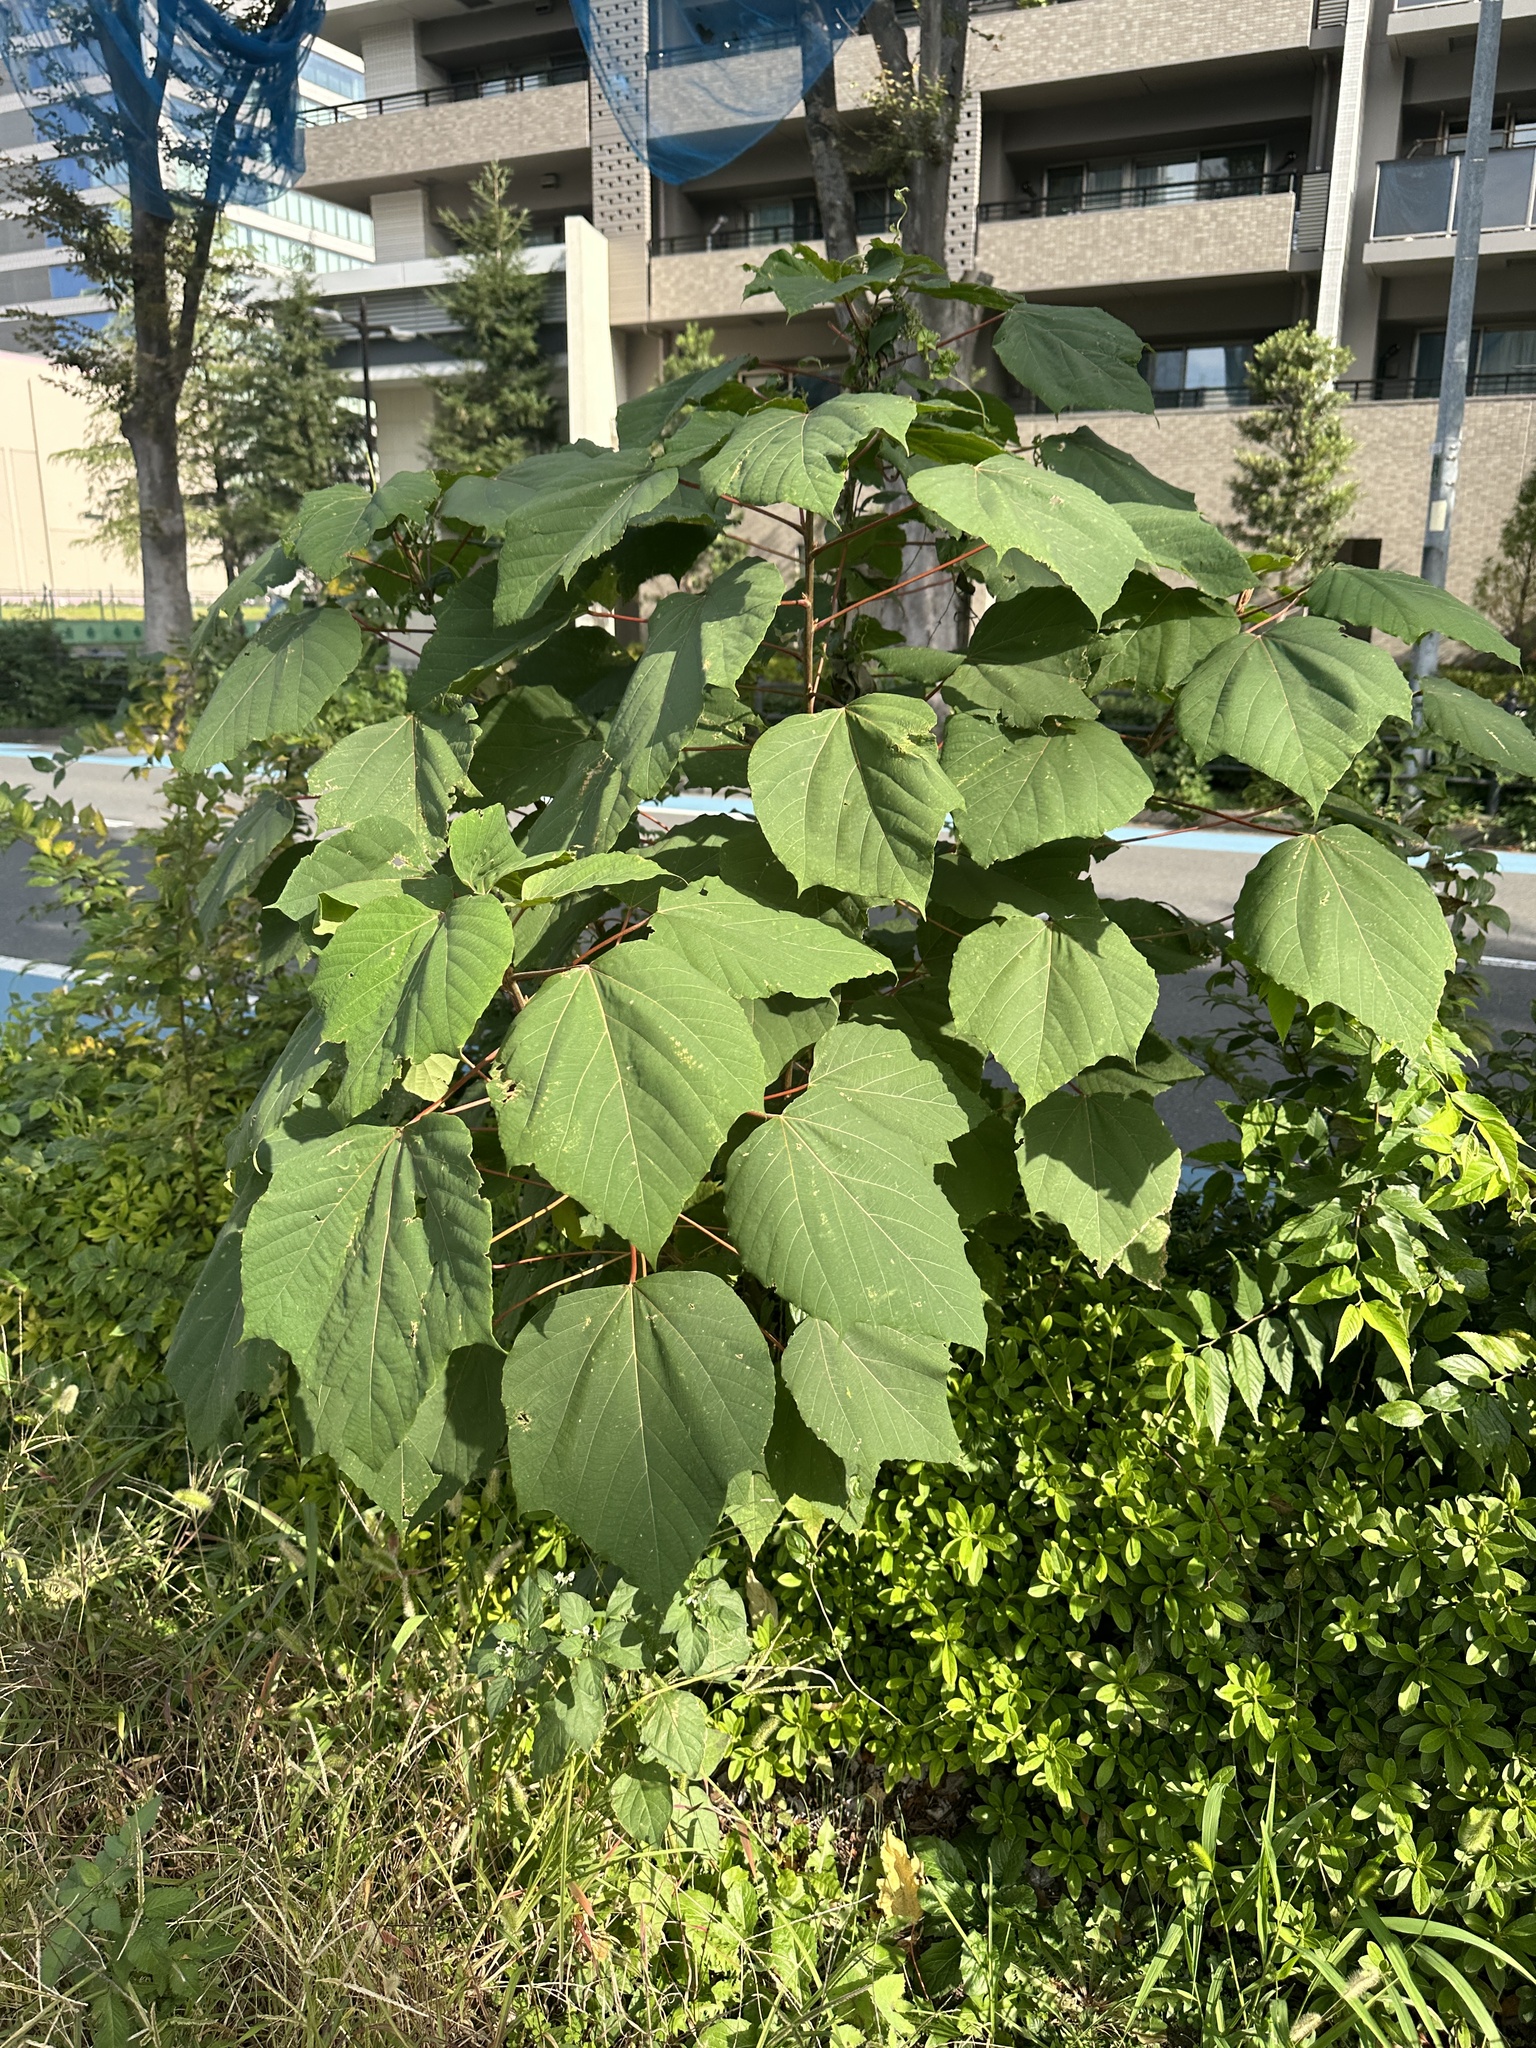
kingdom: Plantae
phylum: Tracheophyta
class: Magnoliopsida
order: Malpighiales
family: Euphorbiaceae
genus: Mallotus
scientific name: Mallotus japonicus
